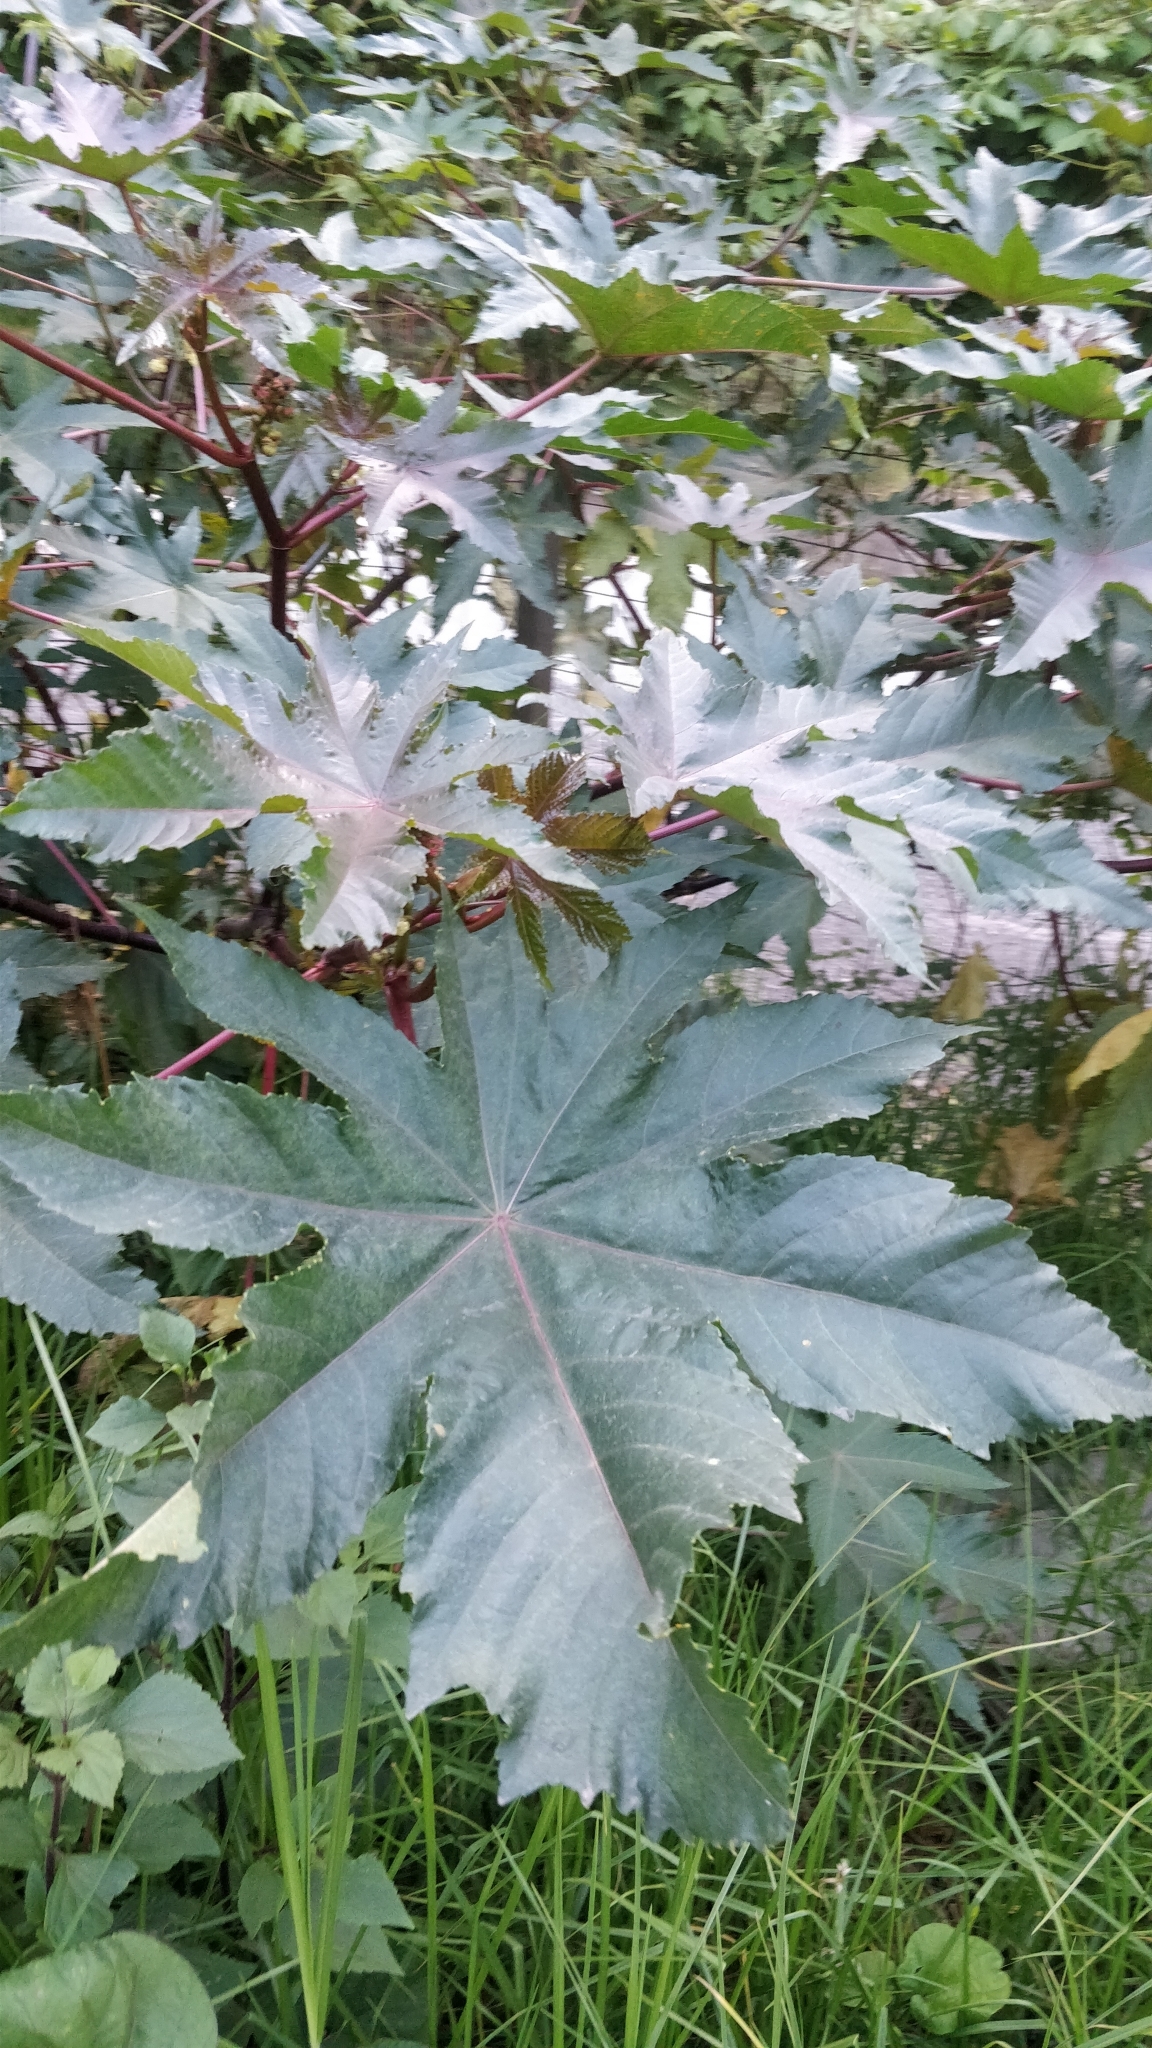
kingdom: Plantae
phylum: Tracheophyta
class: Magnoliopsida
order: Malpighiales
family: Euphorbiaceae
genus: Ricinus
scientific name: Ricinus communis
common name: Castor-oil-plant
